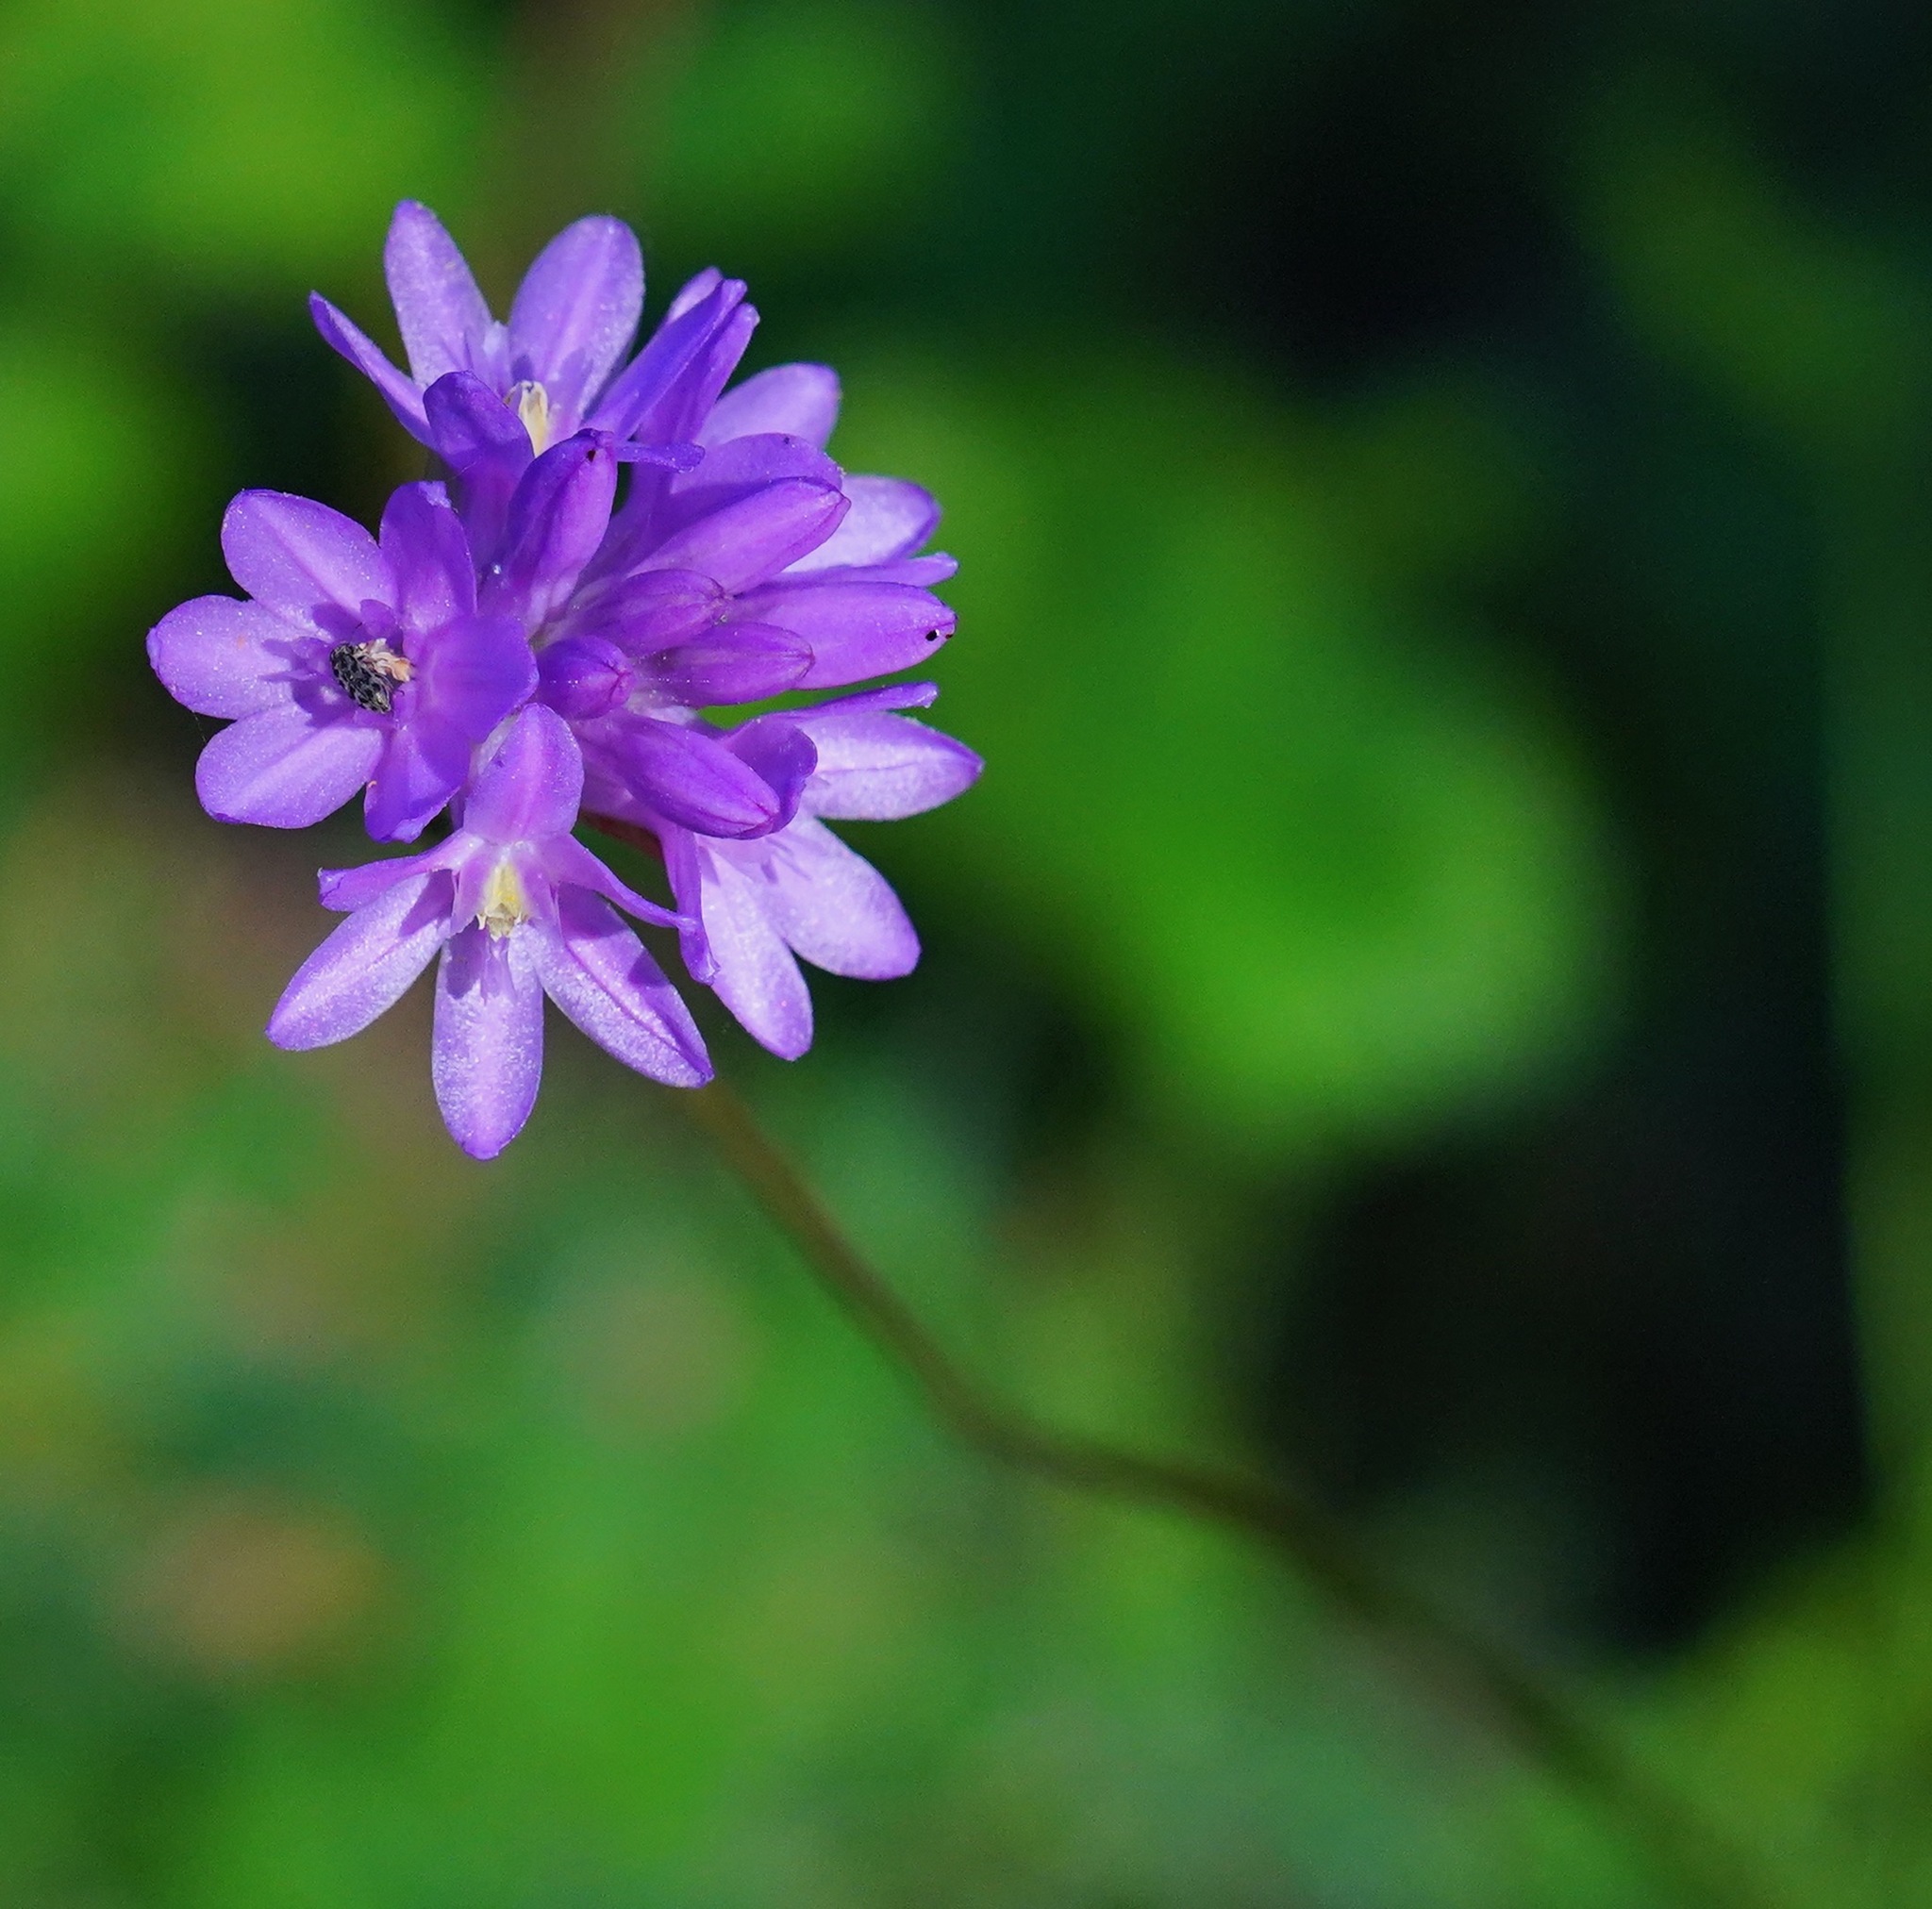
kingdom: Plantae
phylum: Tracheophyta
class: Liliopsida
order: Asparagales
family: Asparagaceae
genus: Dichelostemma
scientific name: Dichelostemma congestum
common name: Fork-tooth ookow
